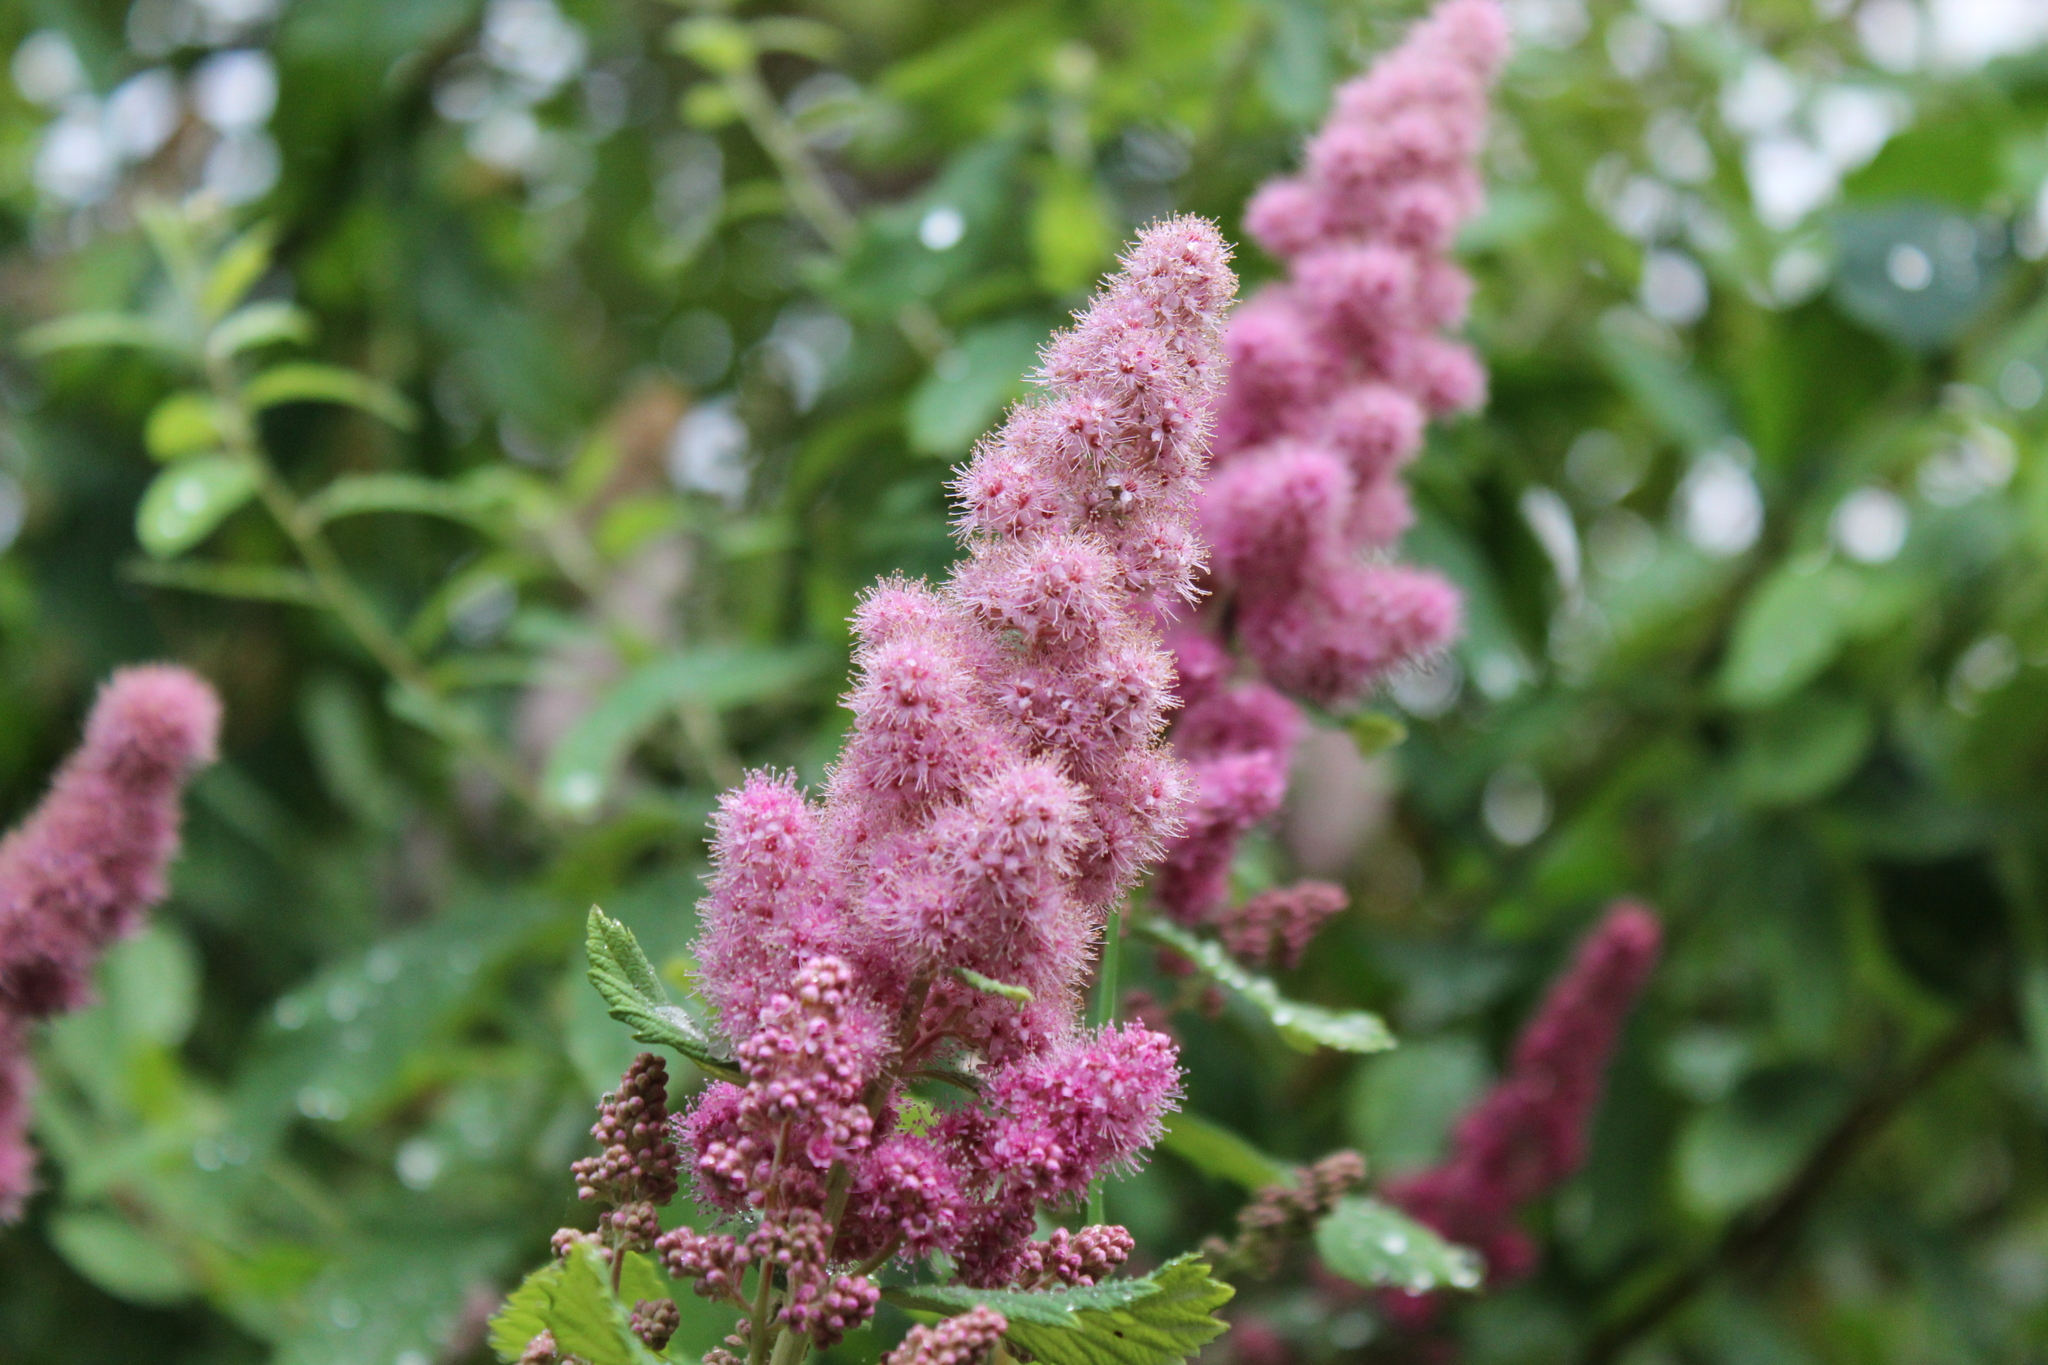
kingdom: Plantae
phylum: Tracheophyta
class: Magnoliopsida
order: Rosales
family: Rosaceae
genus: Spiraea
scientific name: Spiraea douglasii
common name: Steeplebush
